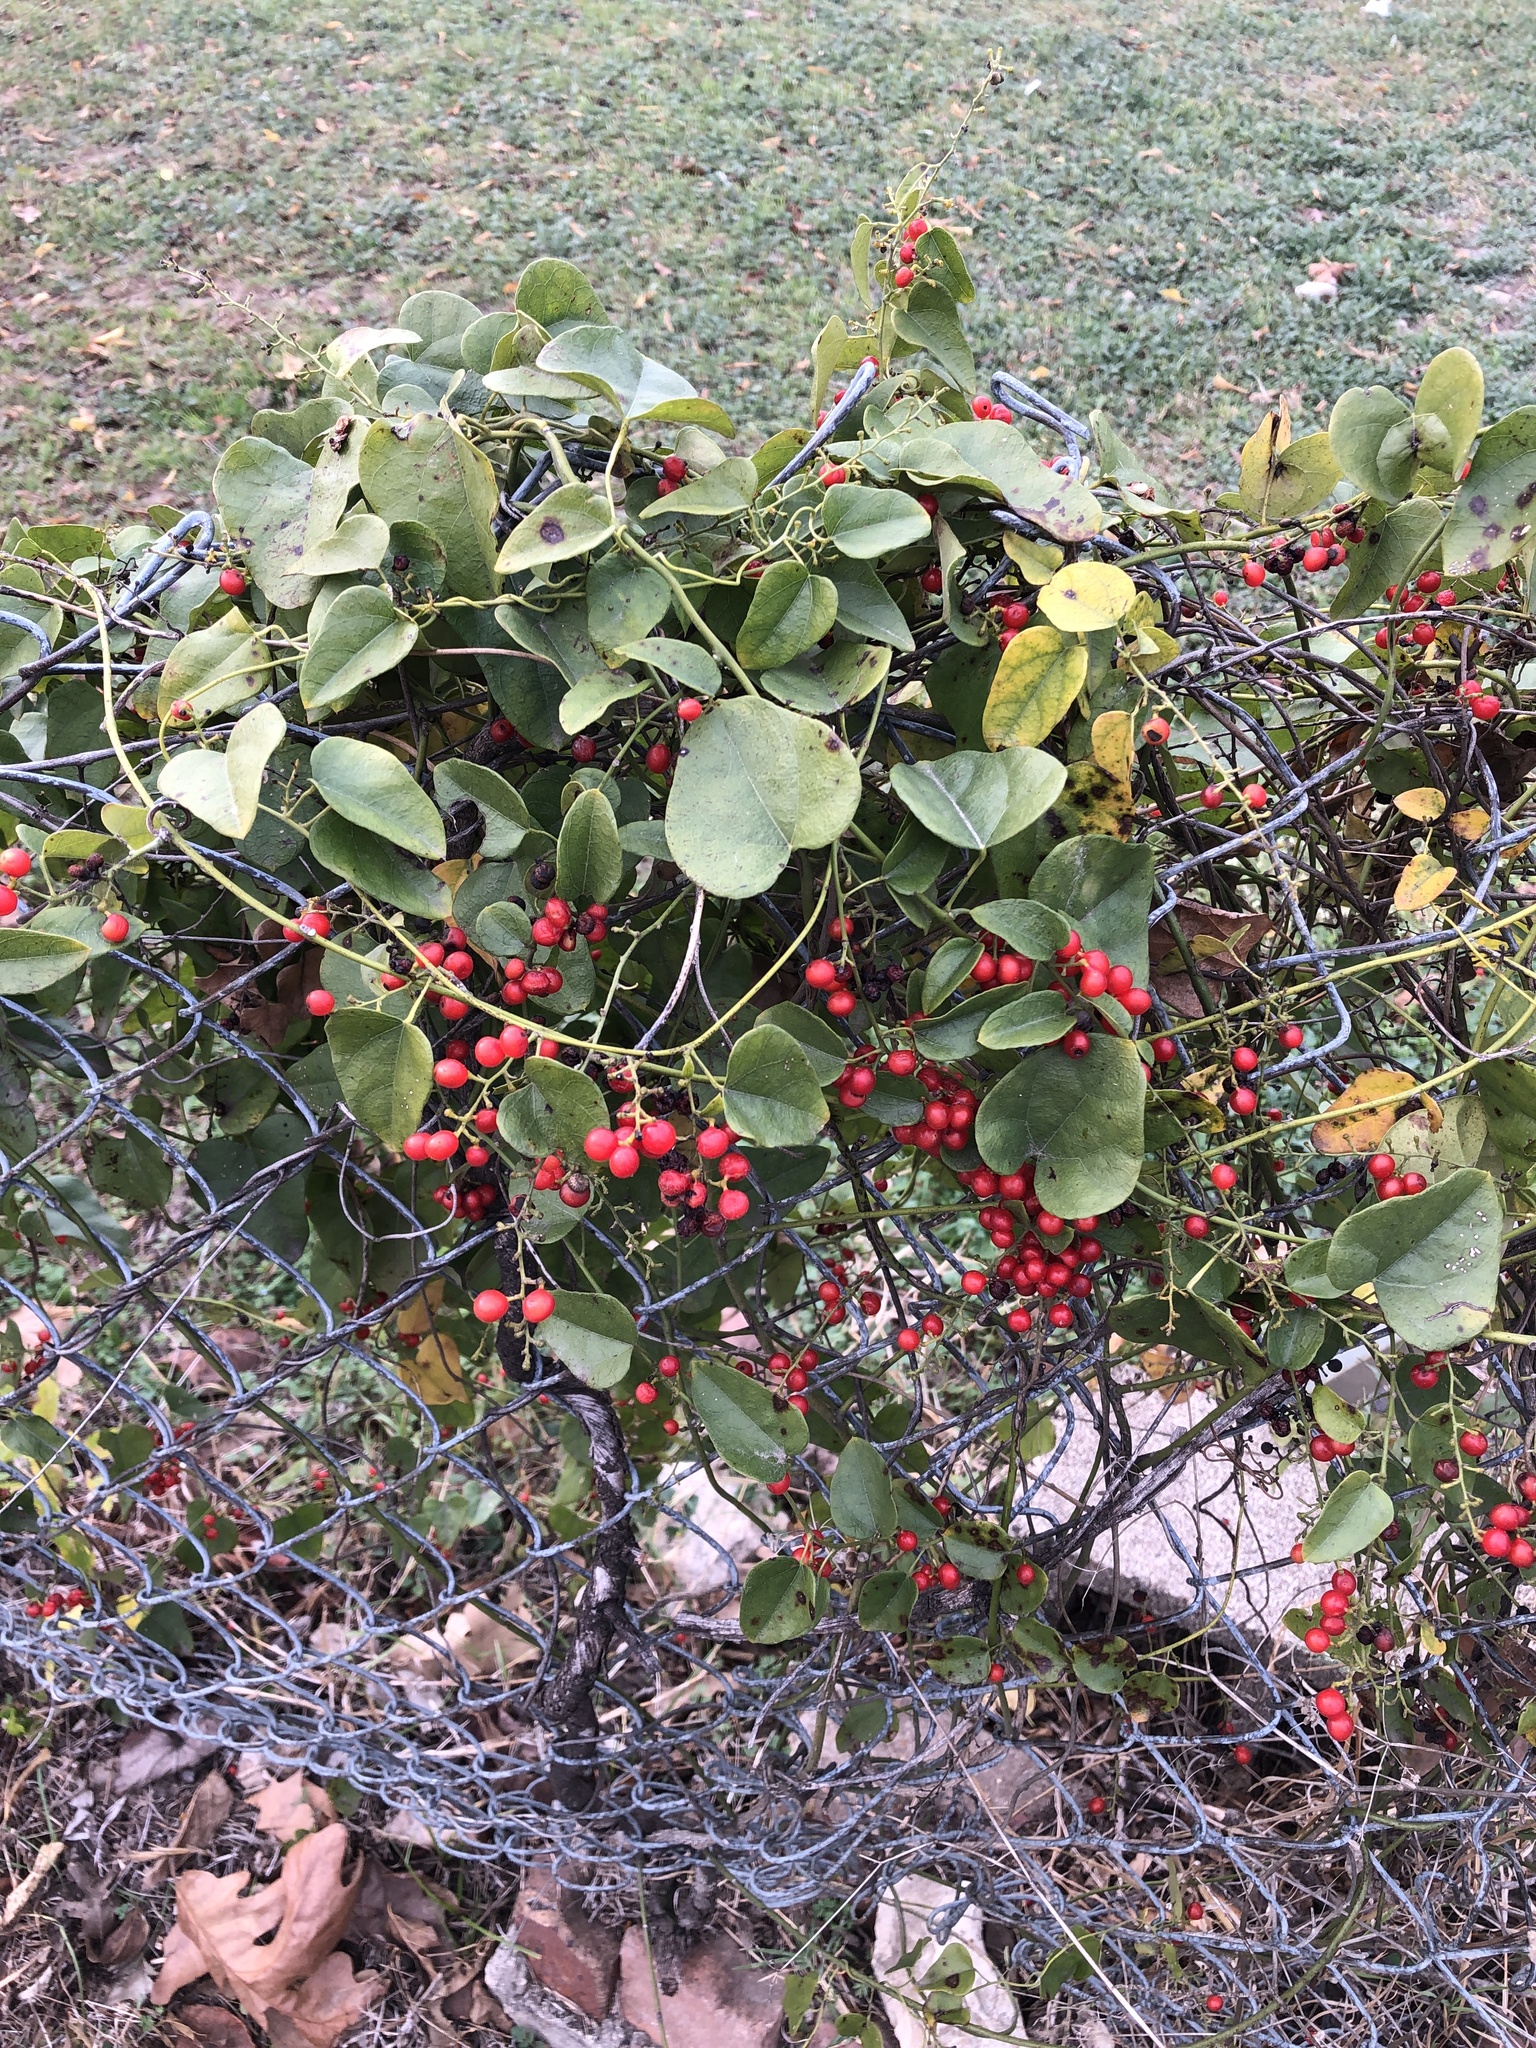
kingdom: Plantae
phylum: Tracheophyta
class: Magnoliopsida
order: Ranunculales
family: Menispermaceae
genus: Cocculus
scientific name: Cocculus carolinus
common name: Carolina moonseed
